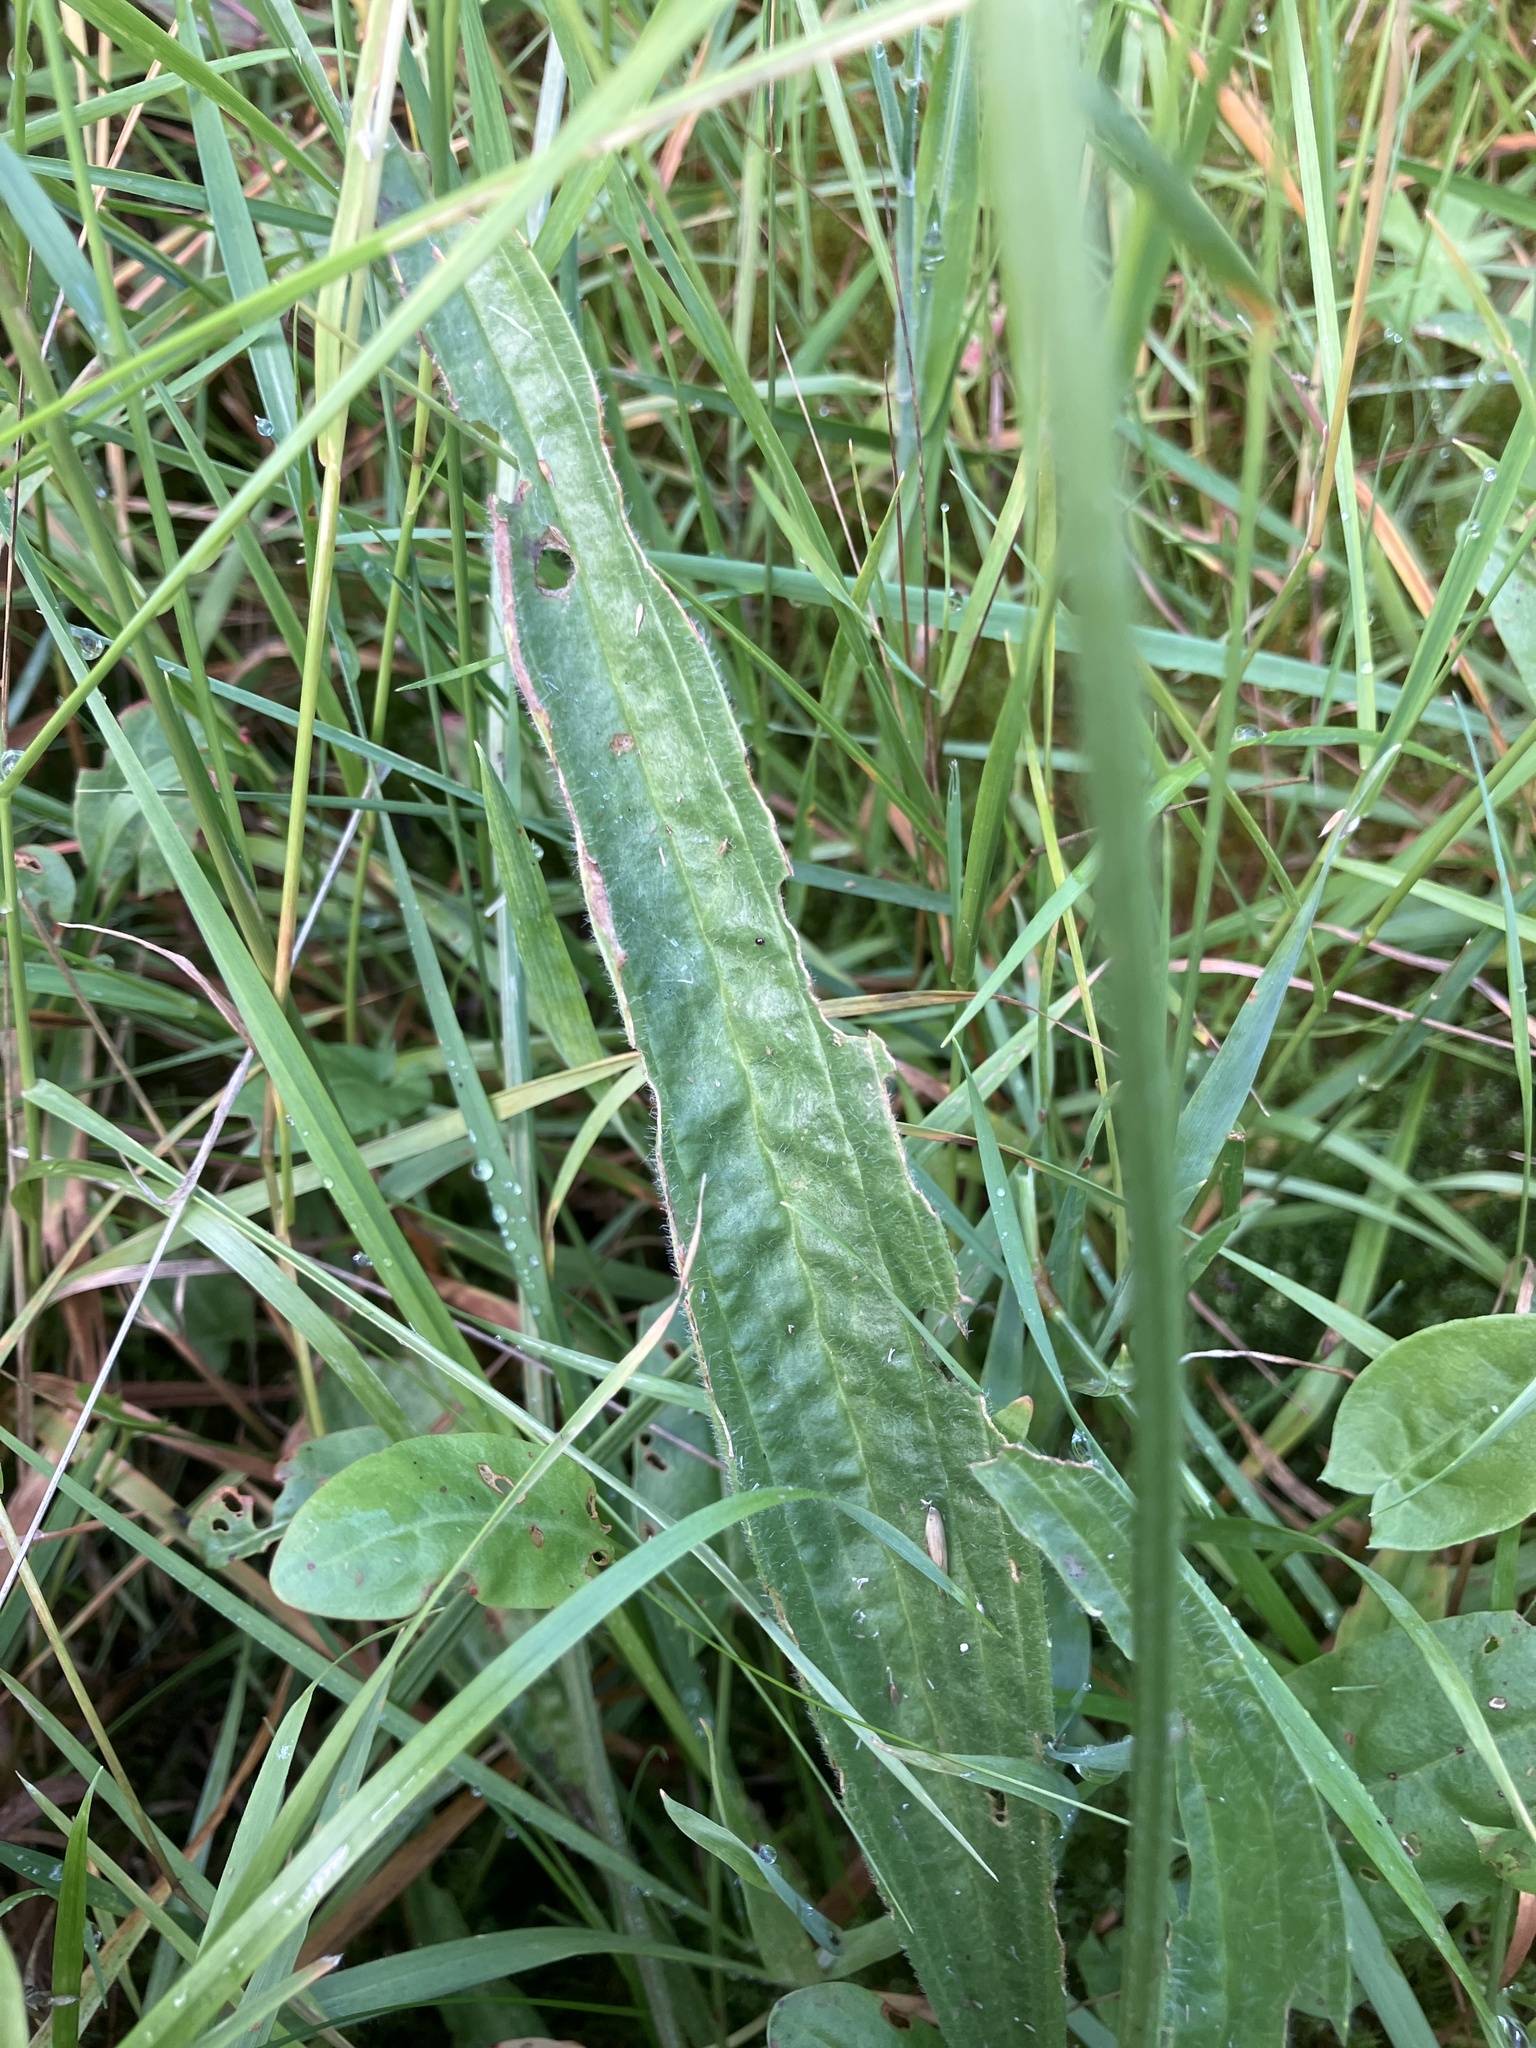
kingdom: Plantae
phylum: Tracheophyta
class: Magnoliopsida
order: Lamiales
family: Plantaginaceae
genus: Plantago
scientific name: Plantago lanceolata
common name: Ribwort plantain
